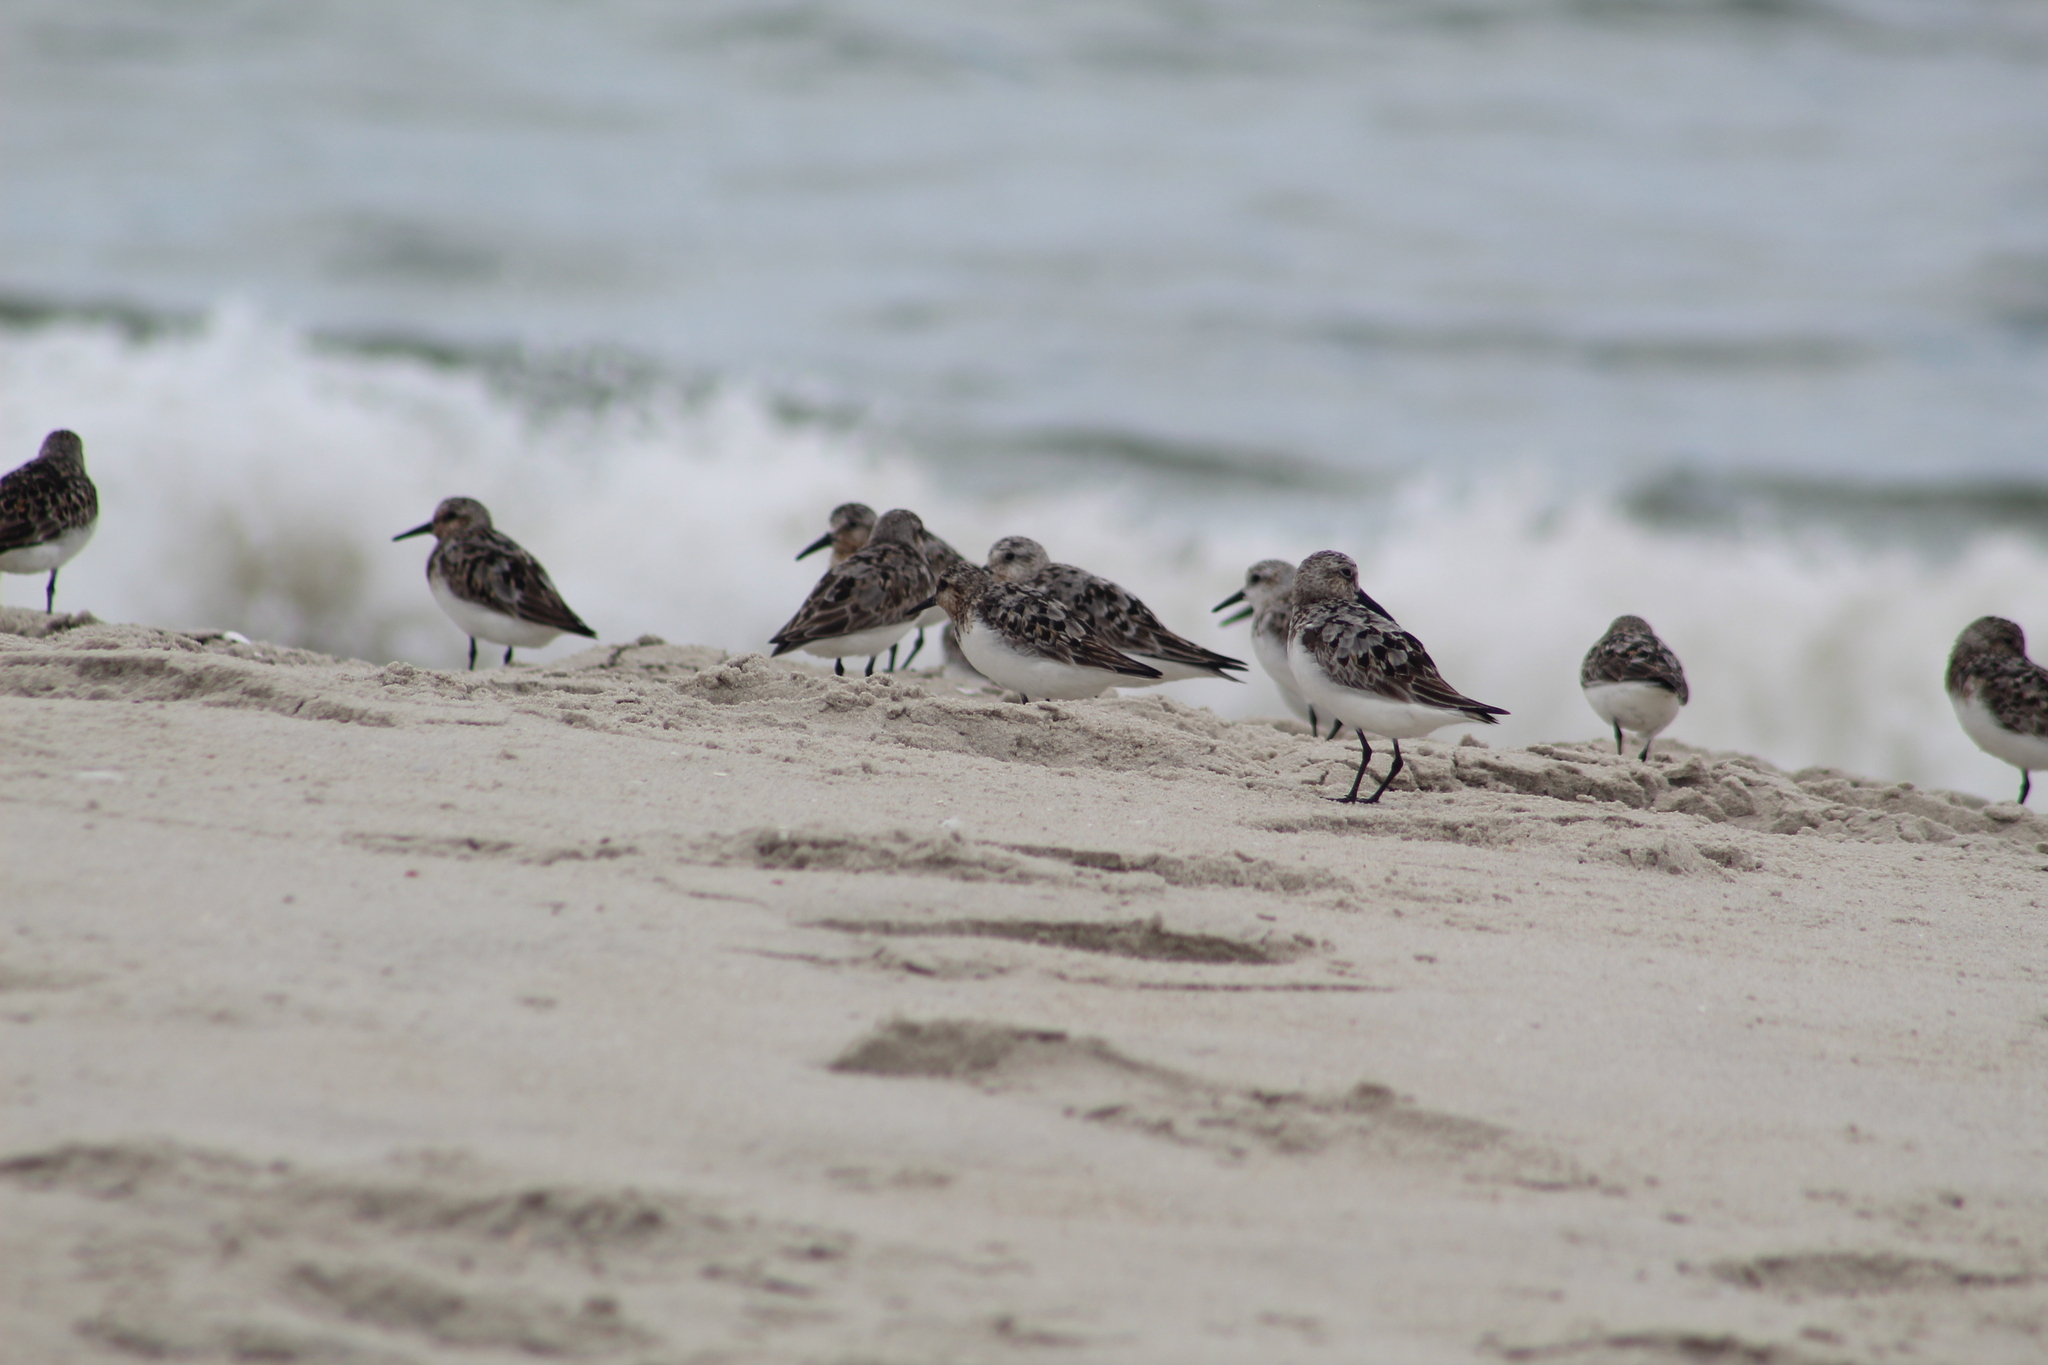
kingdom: Animalia
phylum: Chordata
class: Aves
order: Charadriiformes
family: Scolopacidae
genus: Calidris
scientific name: Calidris alba
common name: Sanderling
